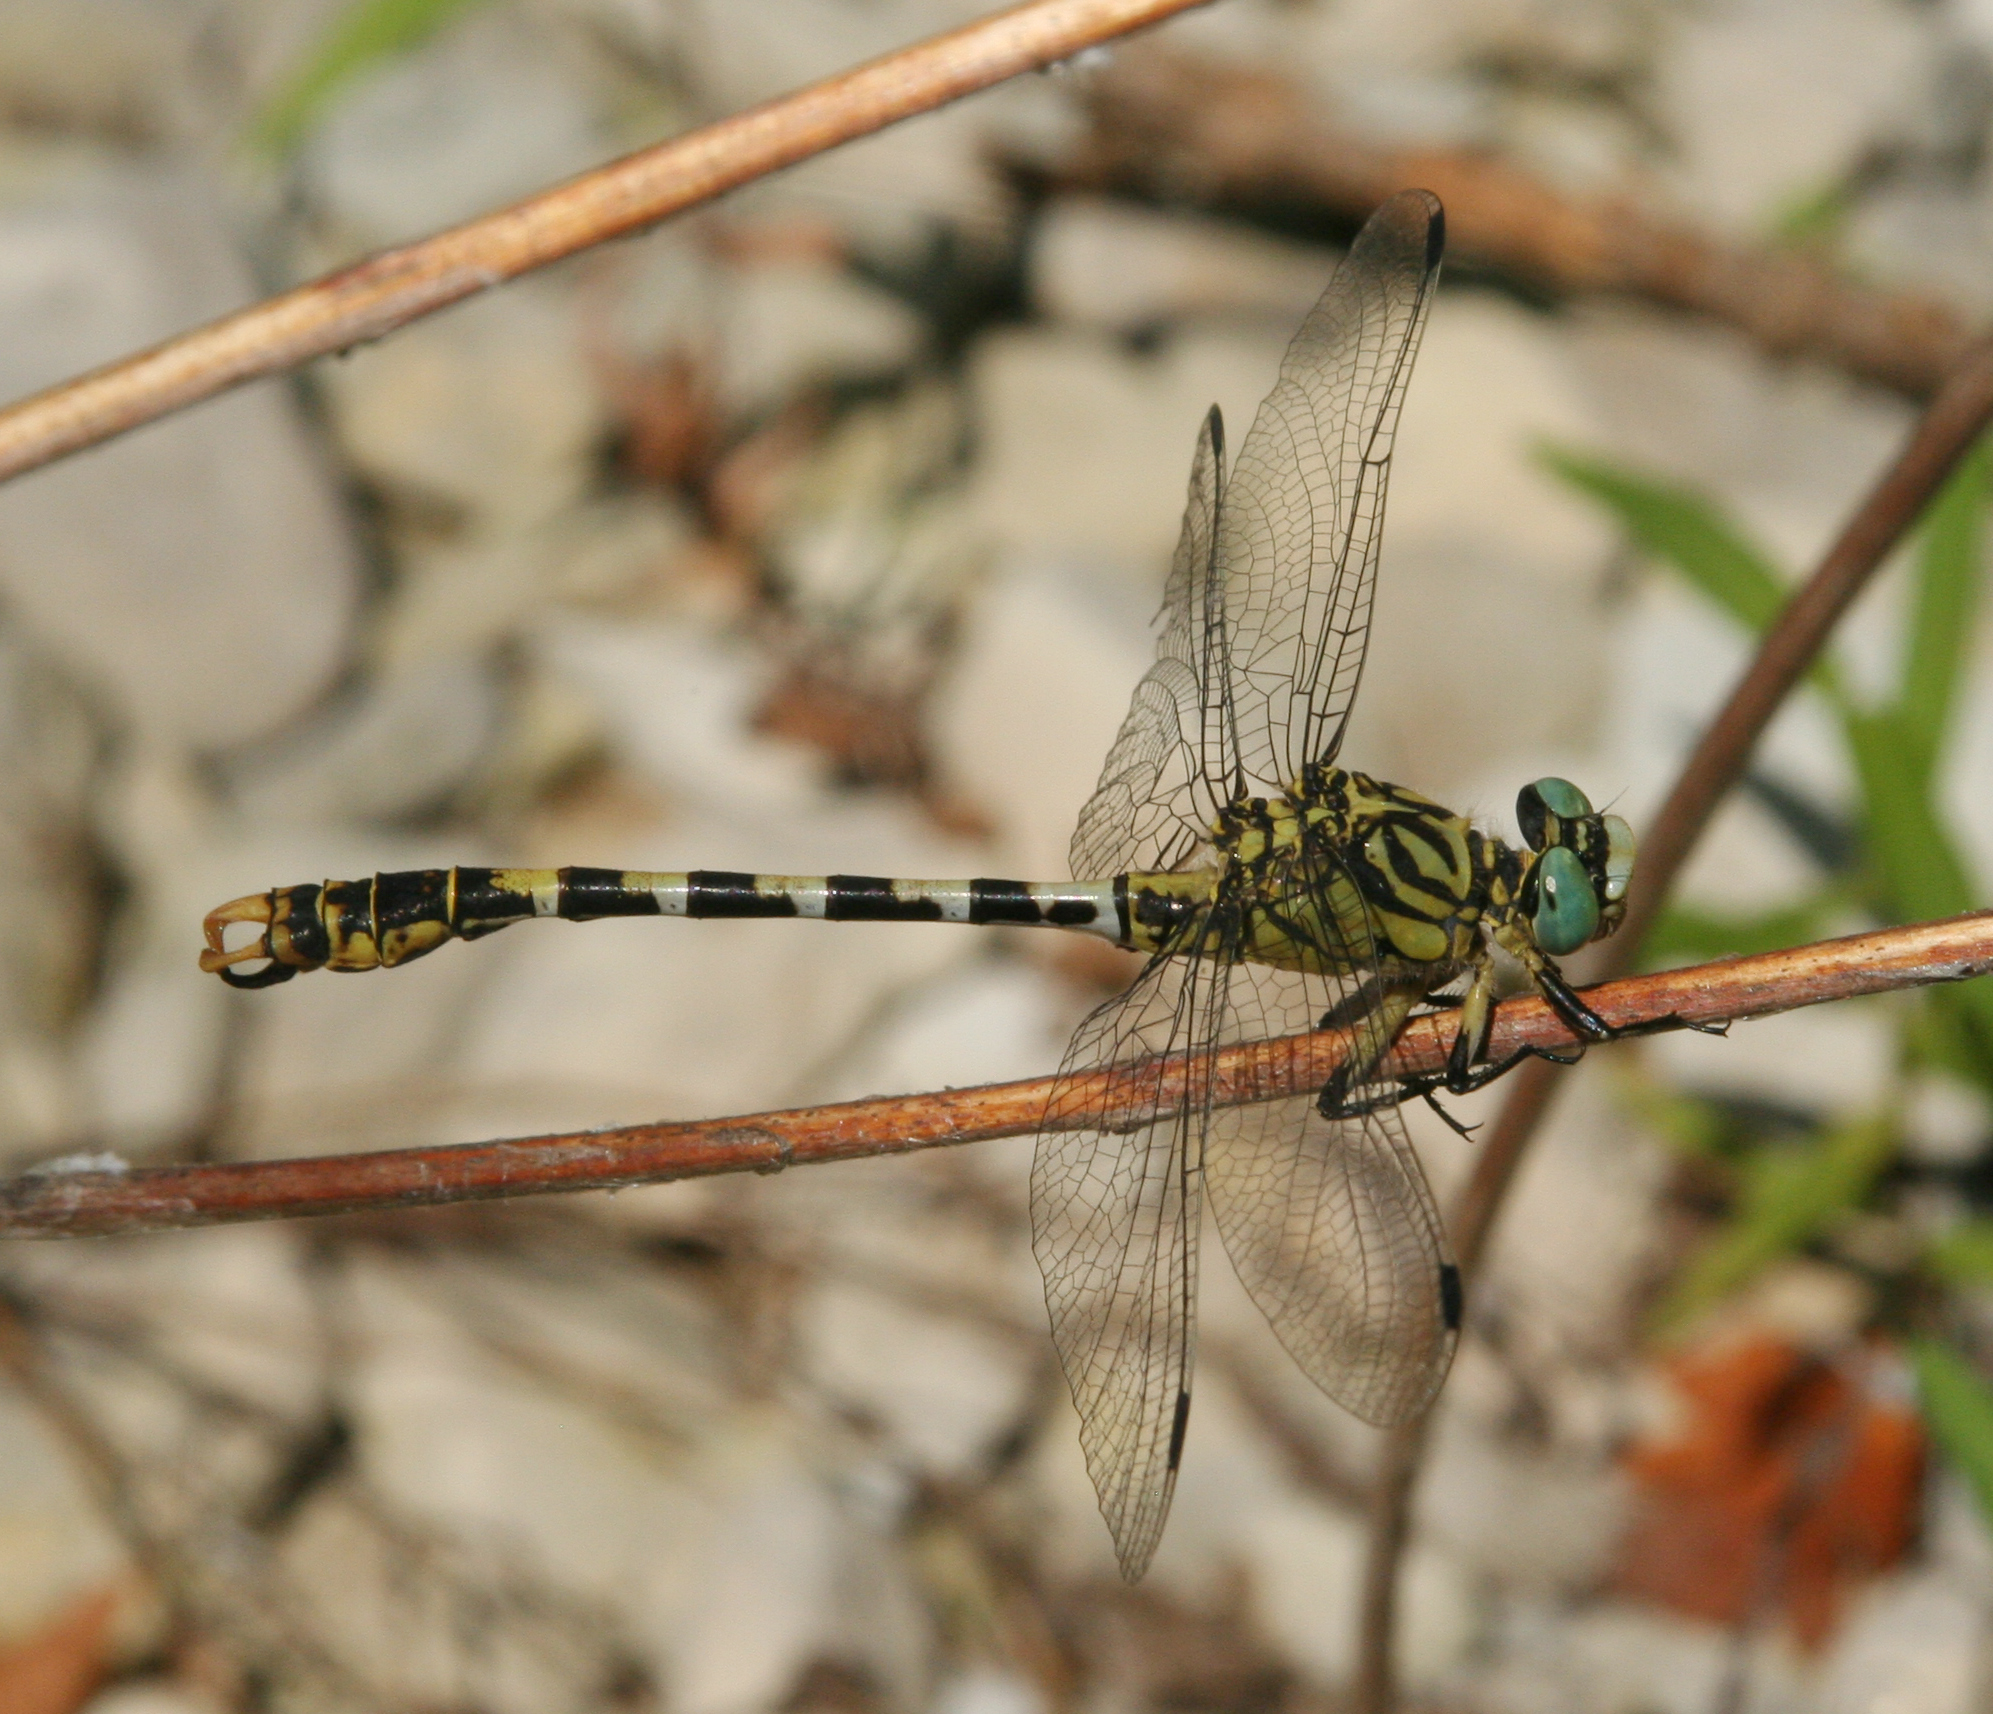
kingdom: Animalia
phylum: Arthropoda
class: Insecta
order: Odonata
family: Gomphidae
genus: Onychogomphus
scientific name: Onychogomphus forcipatus
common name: Small pincertail
